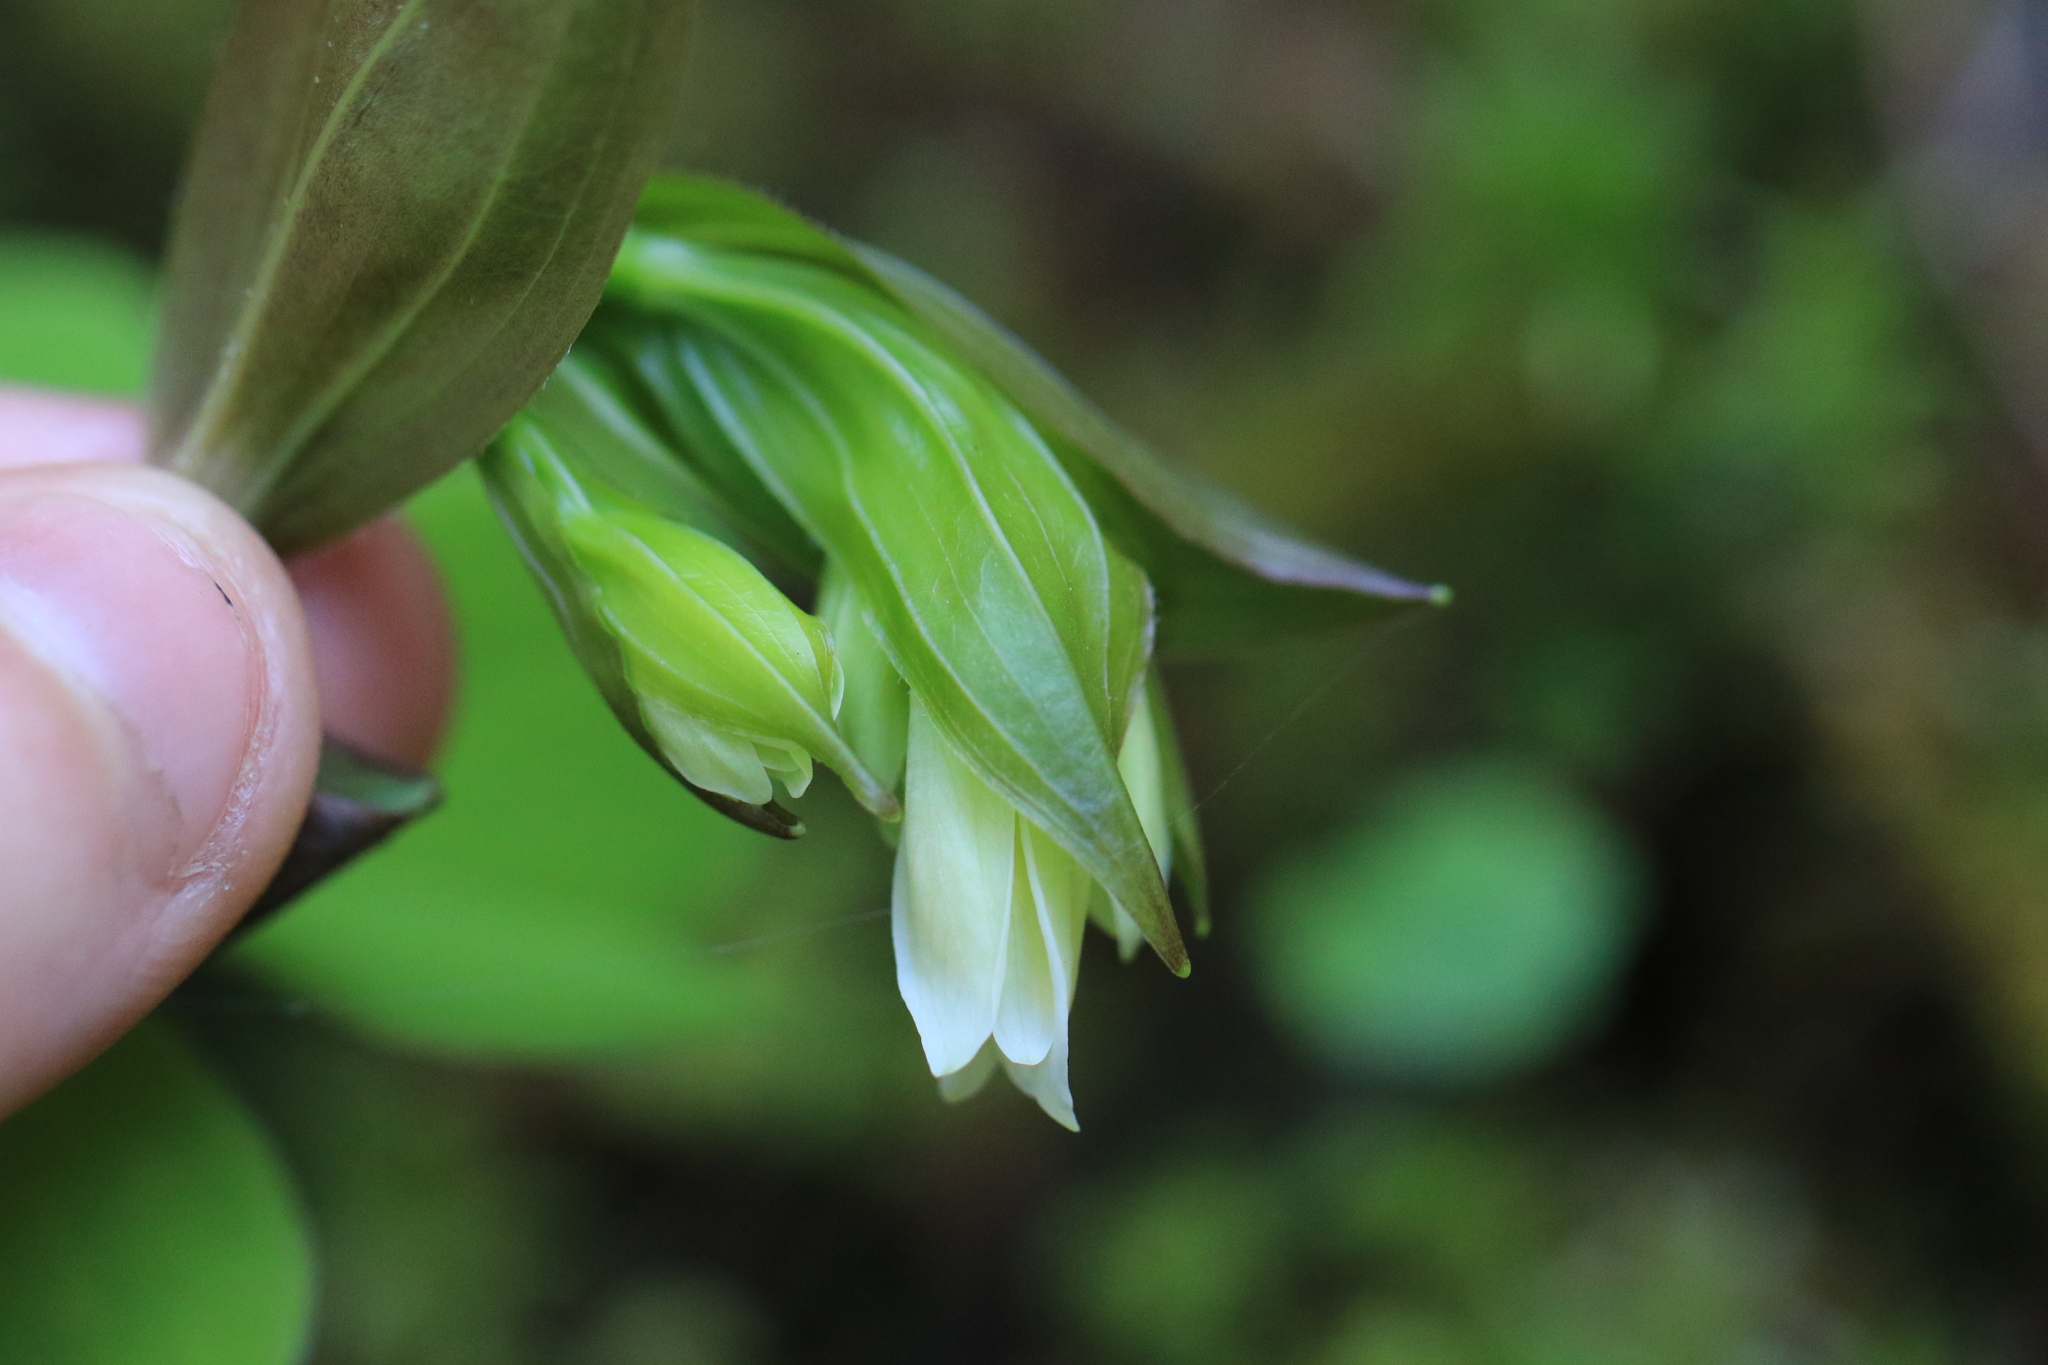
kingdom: Plantae
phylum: Tracheophyta
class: Liliopsida
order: Liliales
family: Liliaceae
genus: Prosartes
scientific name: Prosartes smithii
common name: Fairy-lantern
